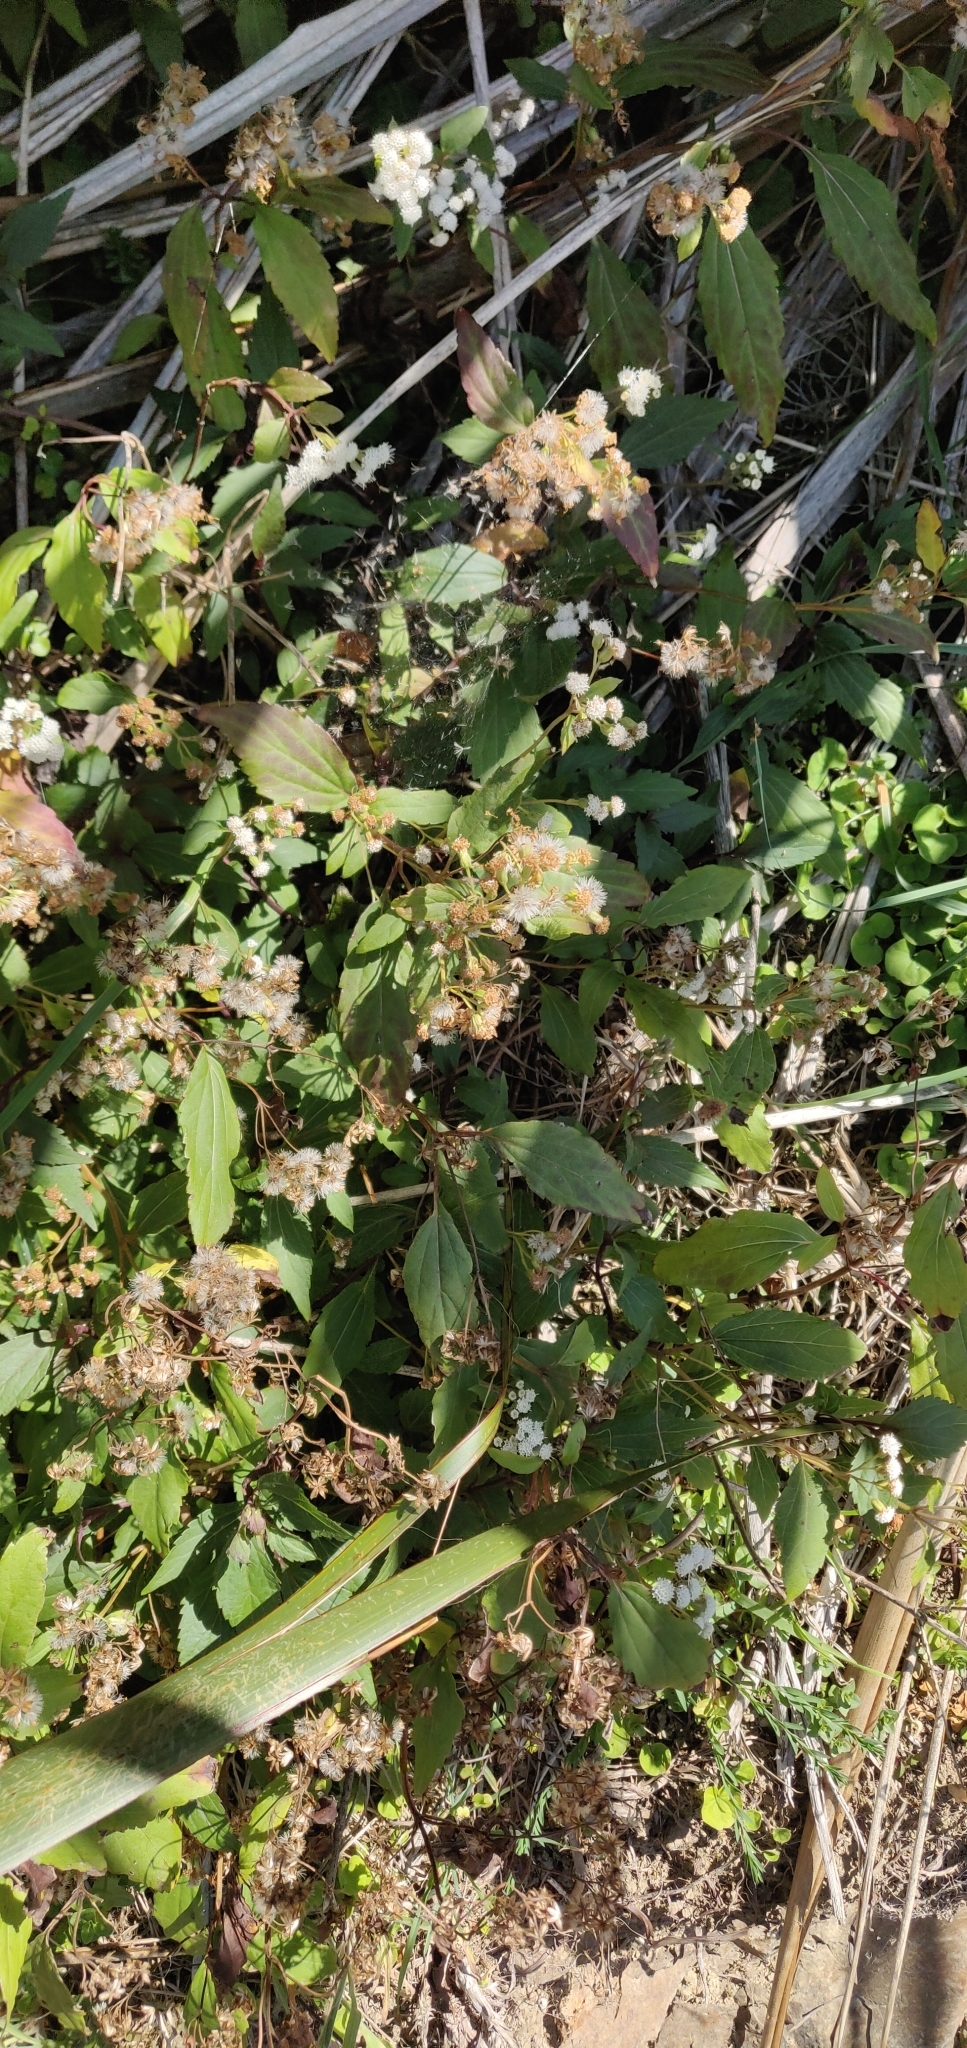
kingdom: Plantae
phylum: Tracheophyta
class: Magnoliopsida
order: Asterales
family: Asteraceae
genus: Ageratina
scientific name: Ageratina riparia
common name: Creeping croftonweed
